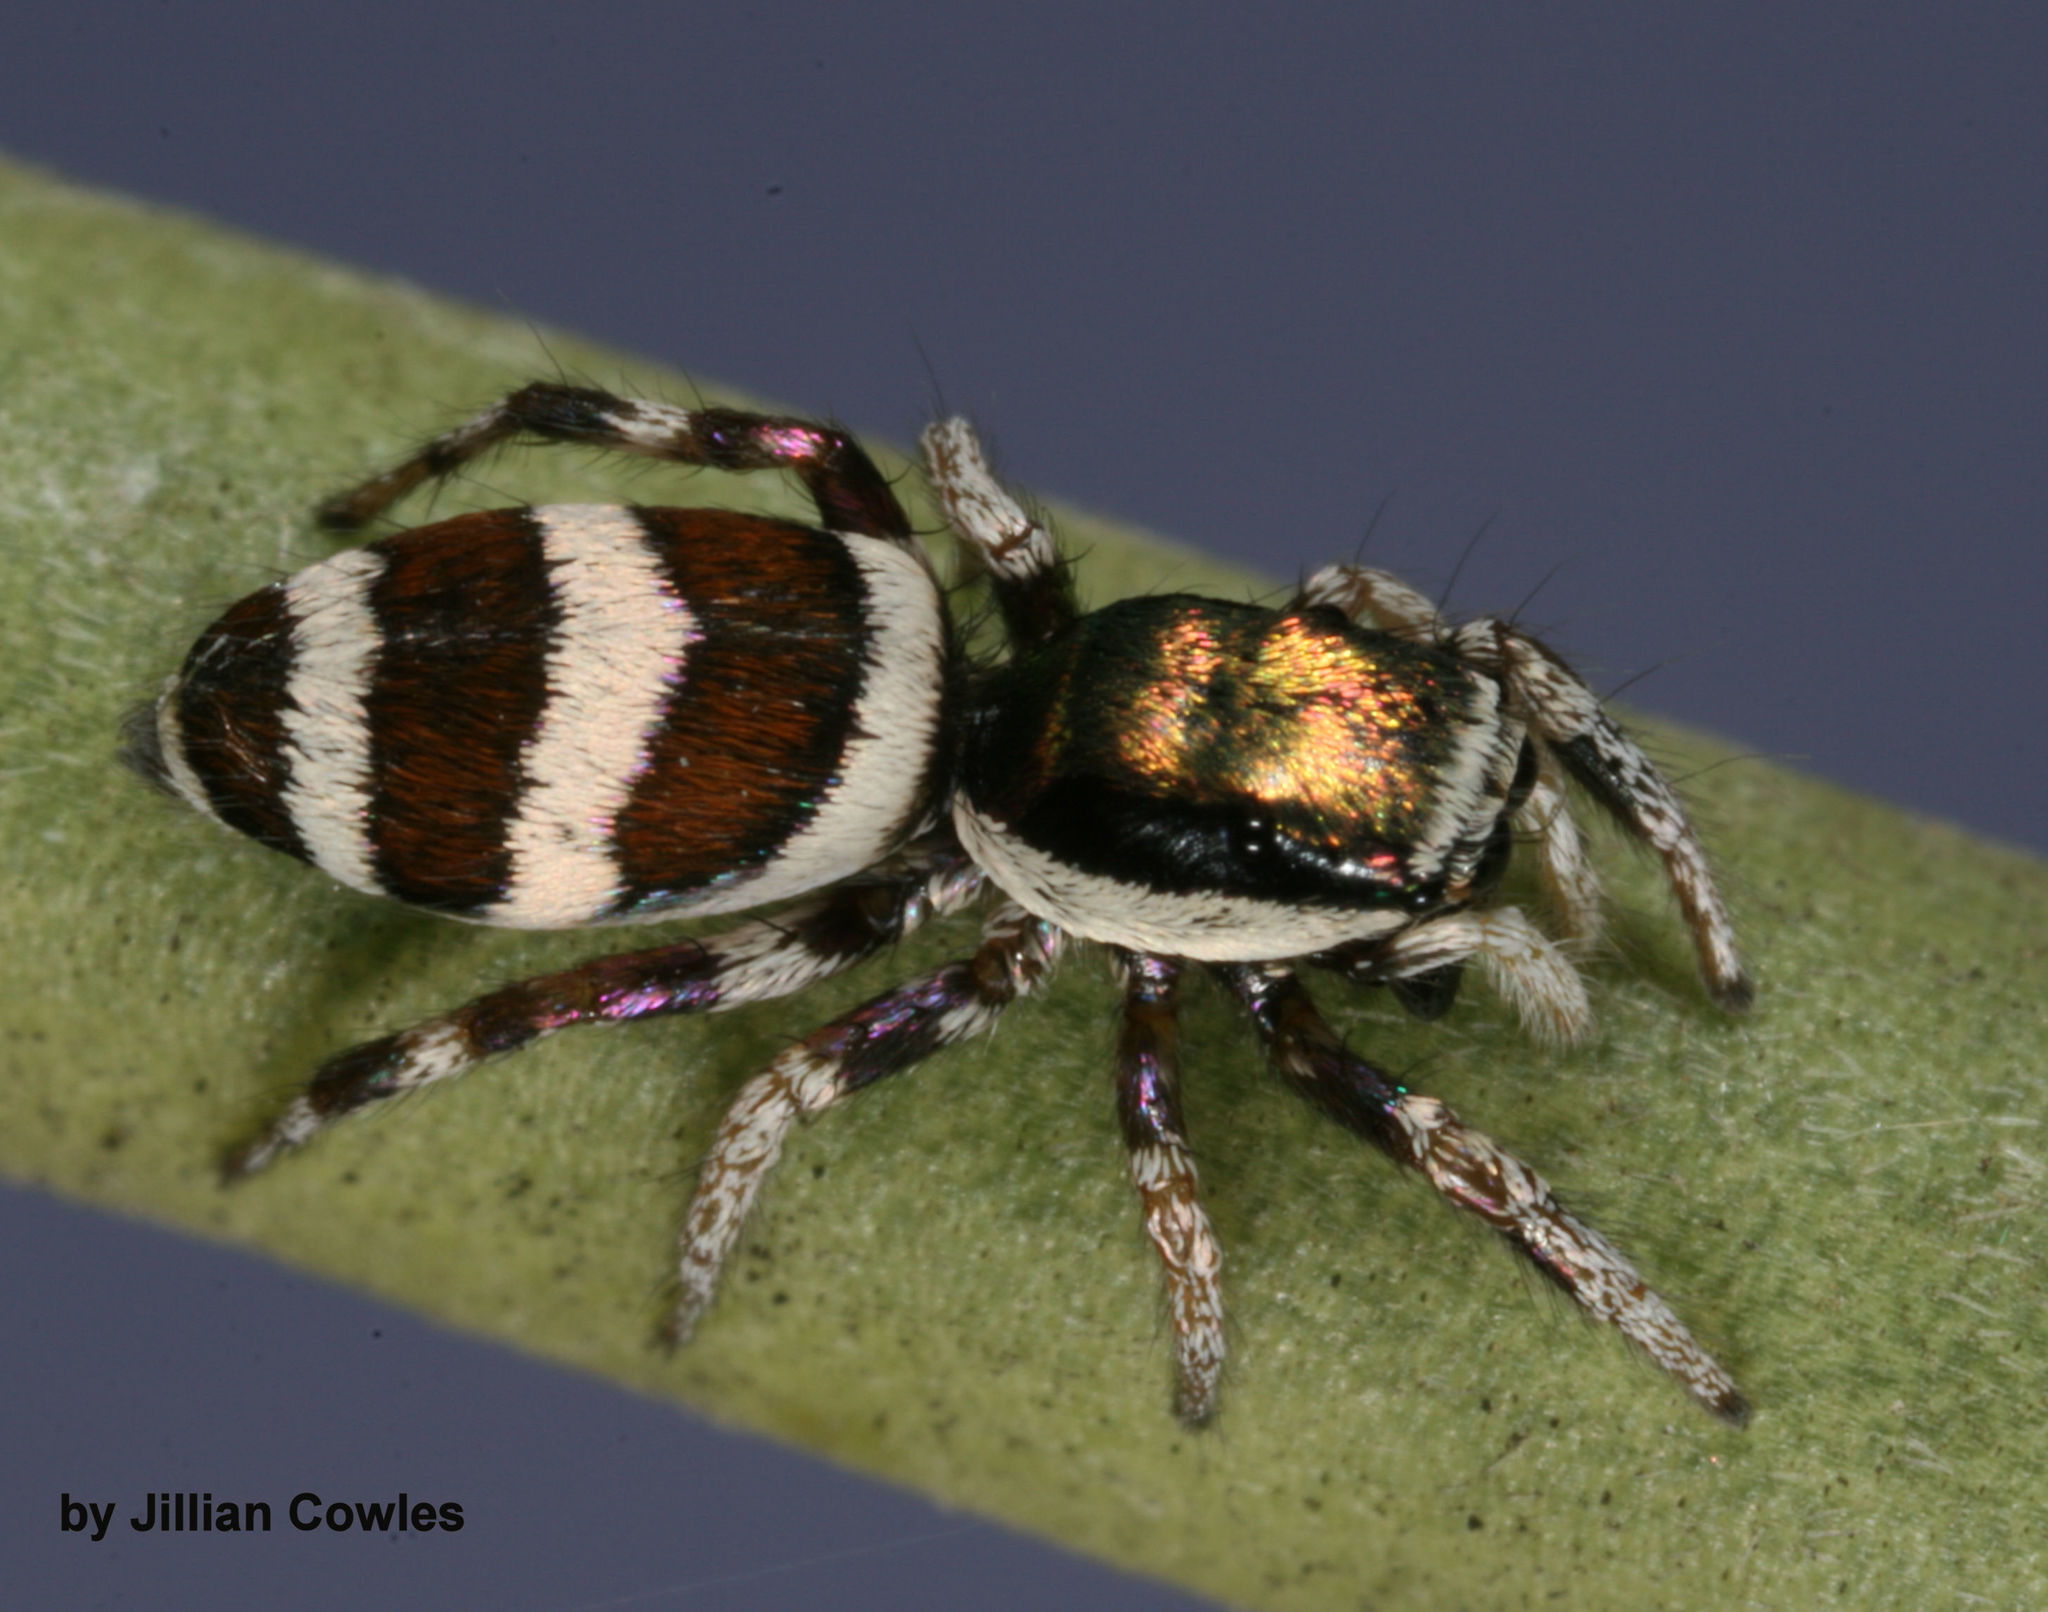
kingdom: Animalia
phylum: Arthropoda
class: Arachnida
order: Araneae
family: Salticidae
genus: Salticus
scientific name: Salticus palpalis
